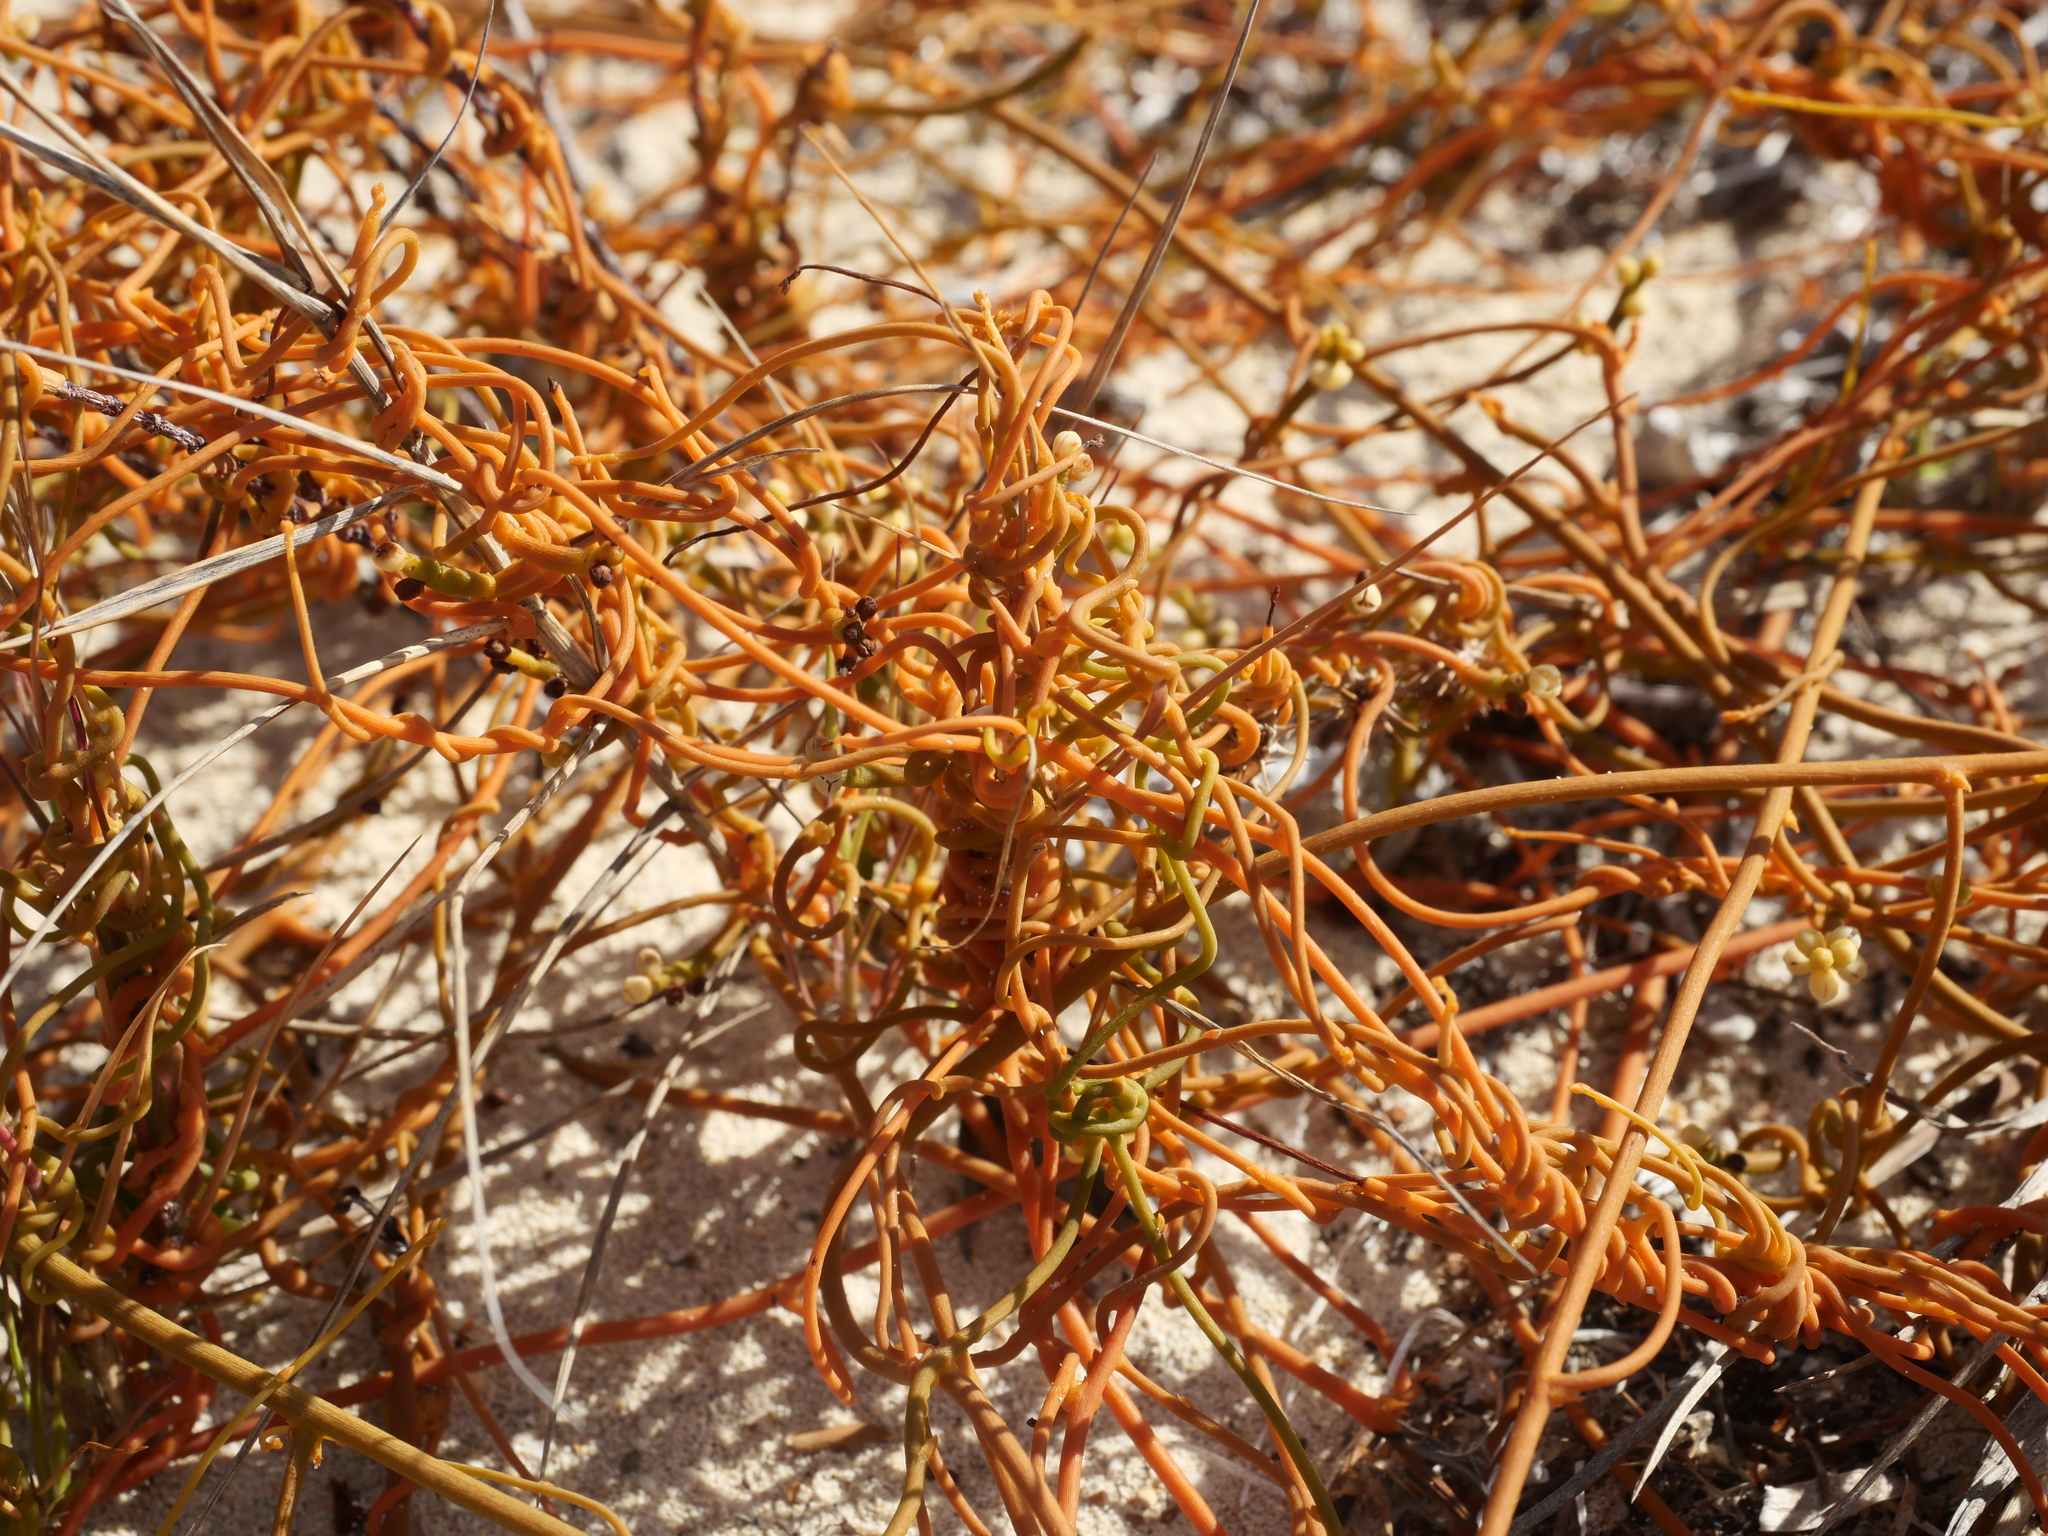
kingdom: Plantae
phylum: Tracheophyta
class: Magnoliopsida
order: Laurales
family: Lauraceae
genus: Cassytha
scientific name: Cassytha filiformis
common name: Dodder-laurel
